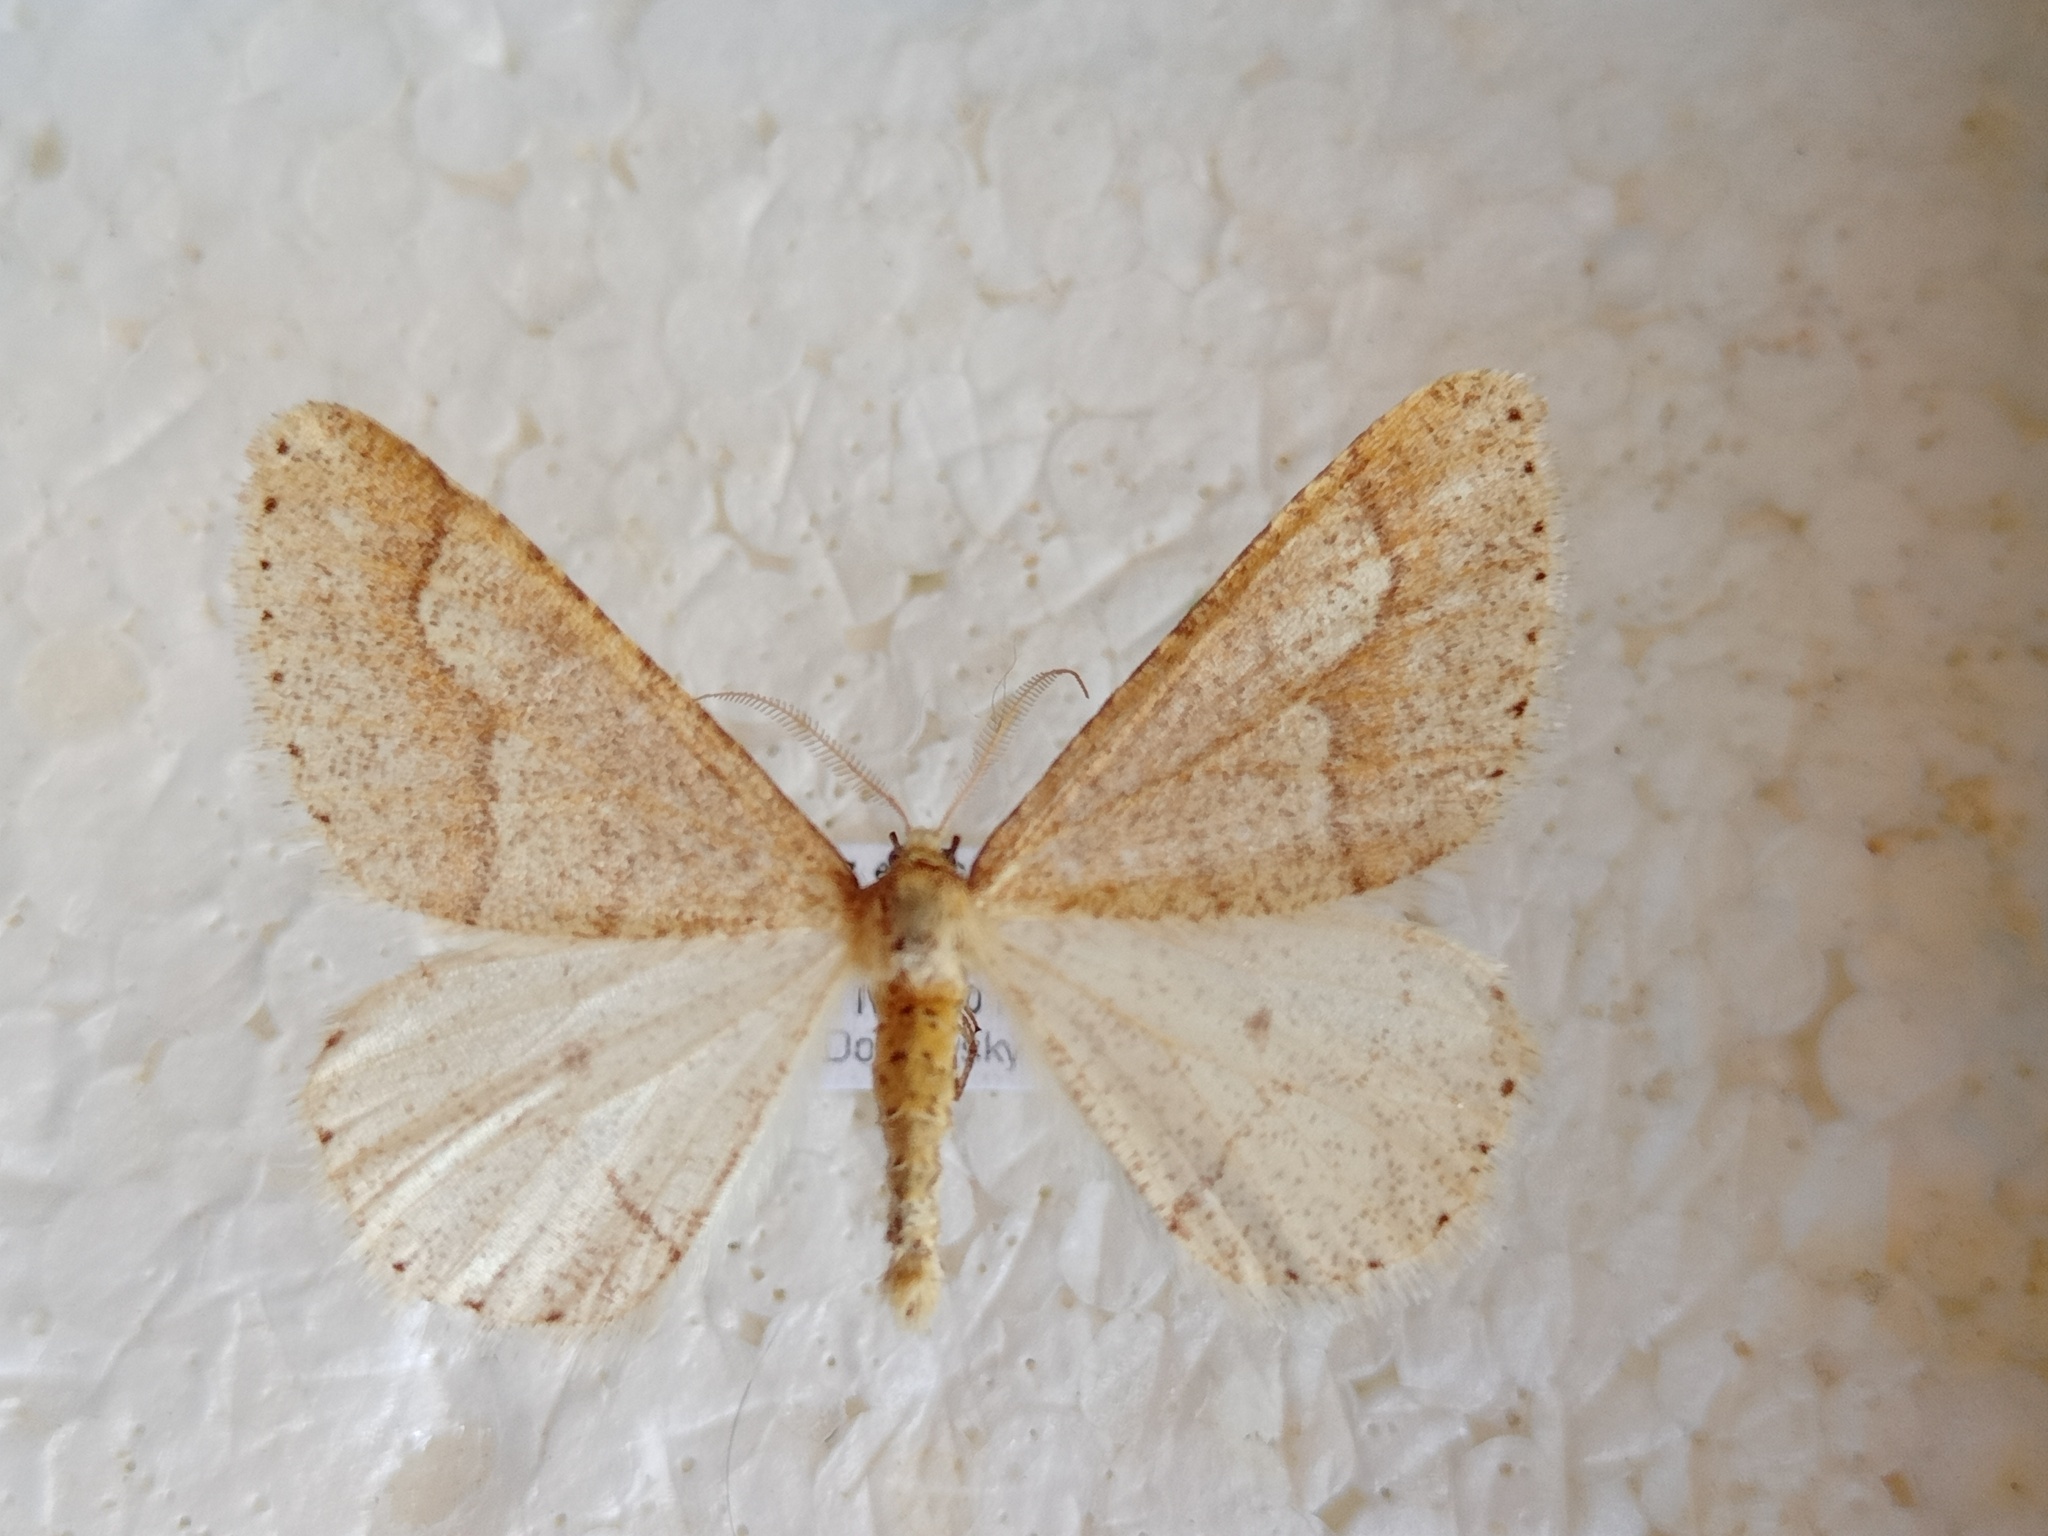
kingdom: Animalia
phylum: Arthropoda
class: Insecta
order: Lepidoptera
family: Geometridae
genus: Agriopis
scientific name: Agriopis marginaria
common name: Dotted border
